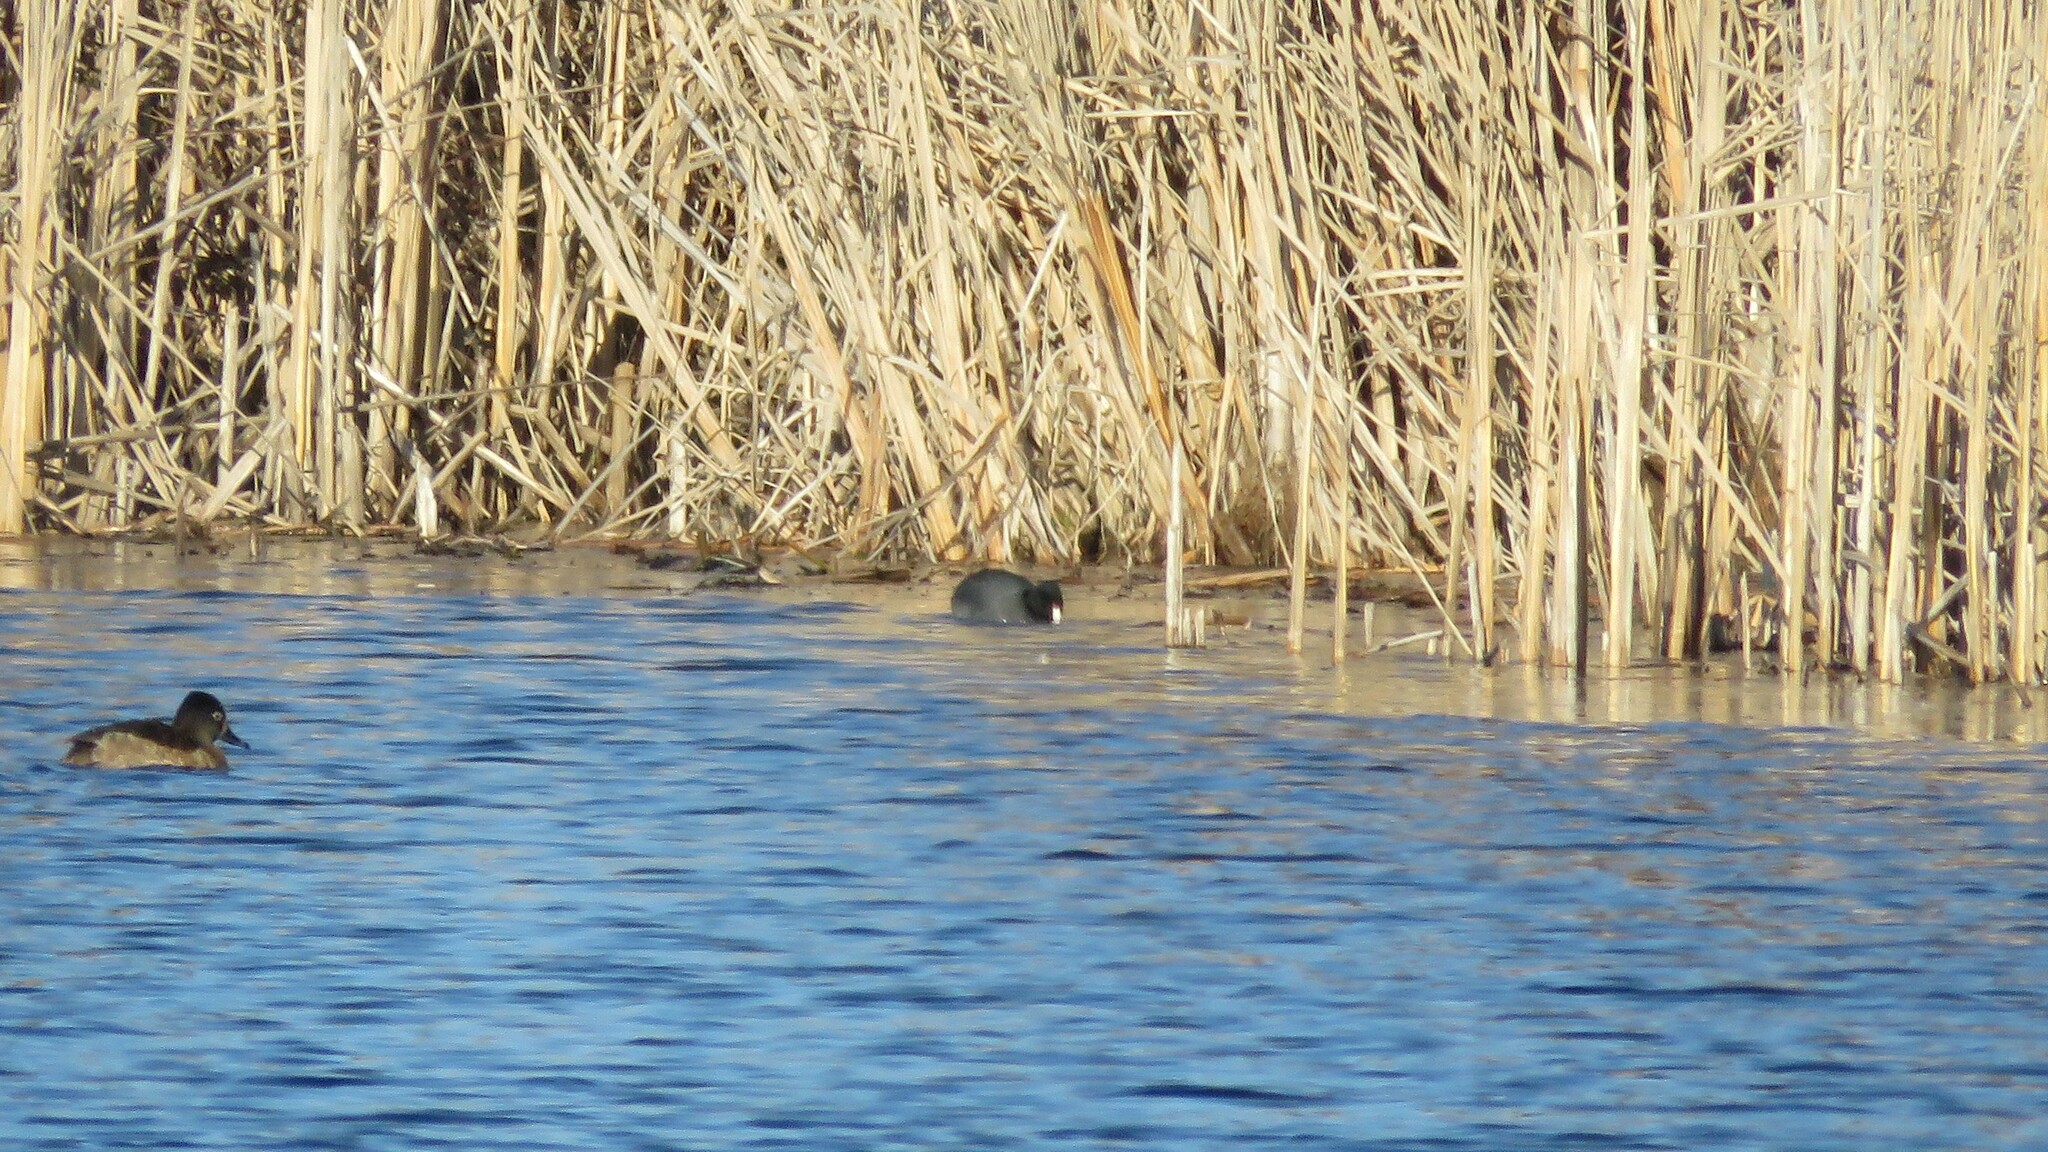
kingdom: Animalia
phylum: Chordata
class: Aves
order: Gruiformes
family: Rallidae
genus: Fulica
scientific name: Fulica americana
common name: American coot
